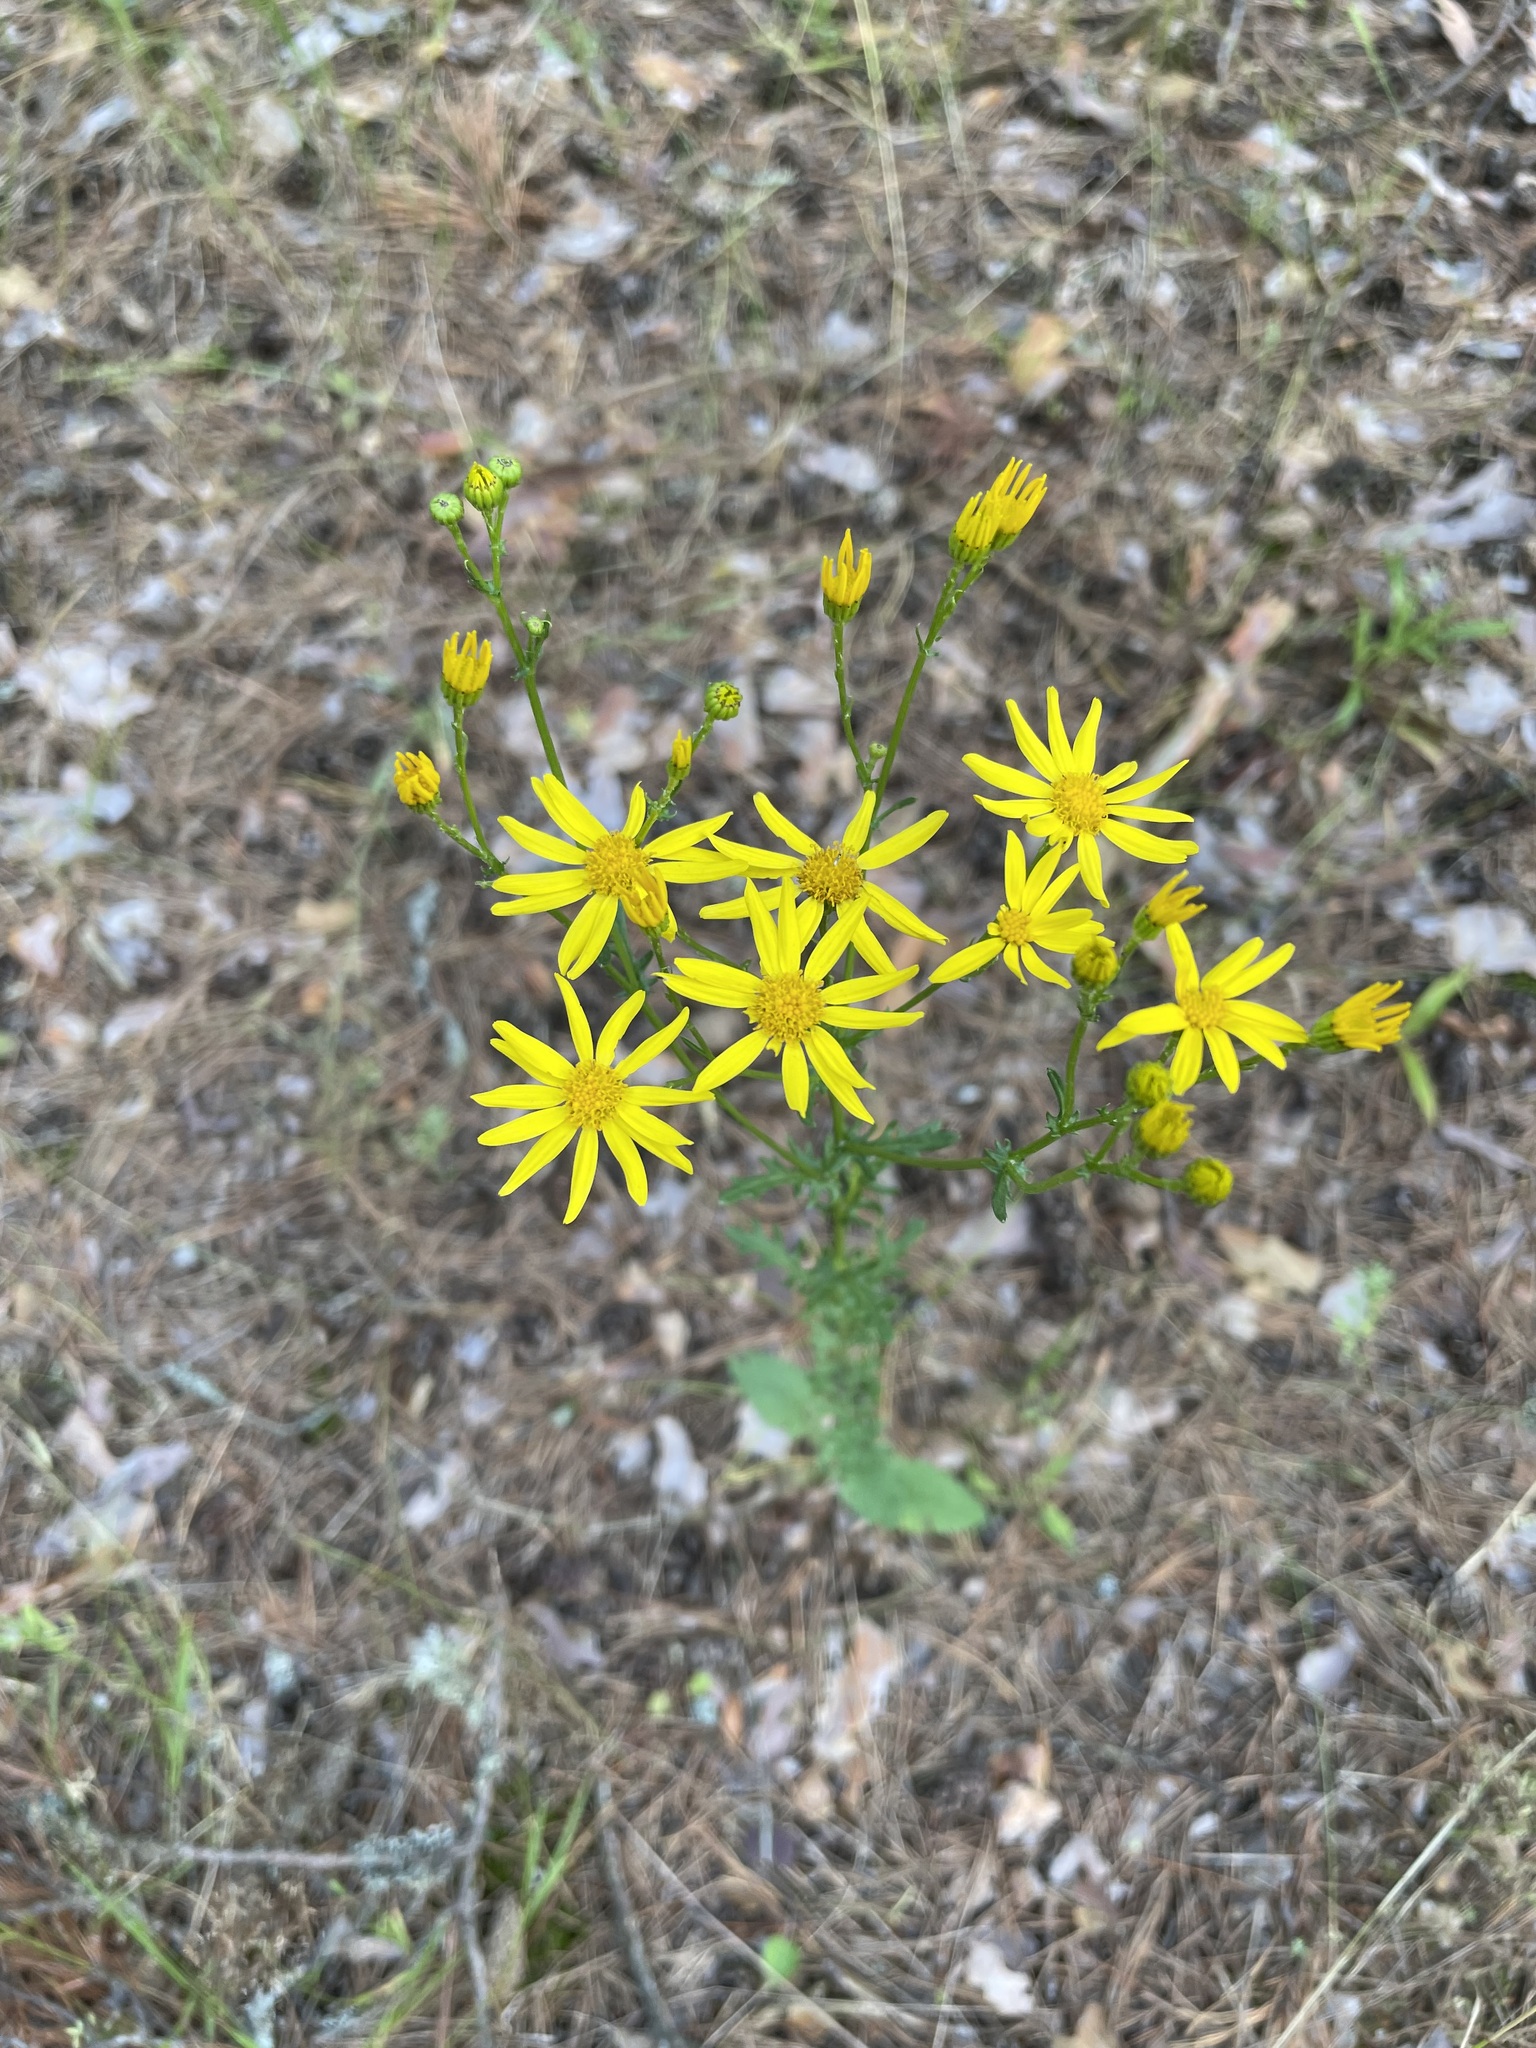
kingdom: Plantae
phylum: Tracheophyta
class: Magnoliopsida
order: Asterales
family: Asteraceae
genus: Jacobaea
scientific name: Jacobaea vulgaris
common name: Stinking willie
